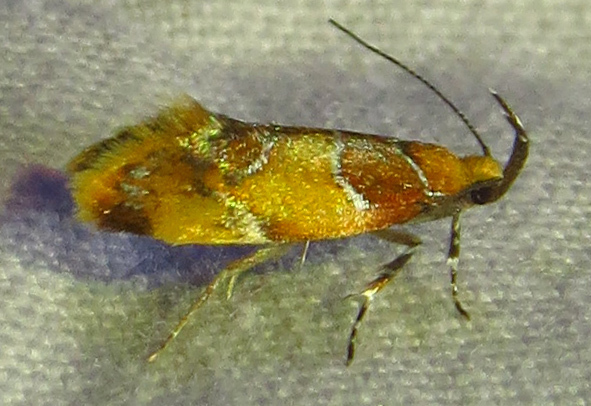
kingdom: Animalia
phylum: Arthropoda
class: Insecta
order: Lepidoptera
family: Oecophoridae
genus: Callima
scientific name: Callima argenticinctella
